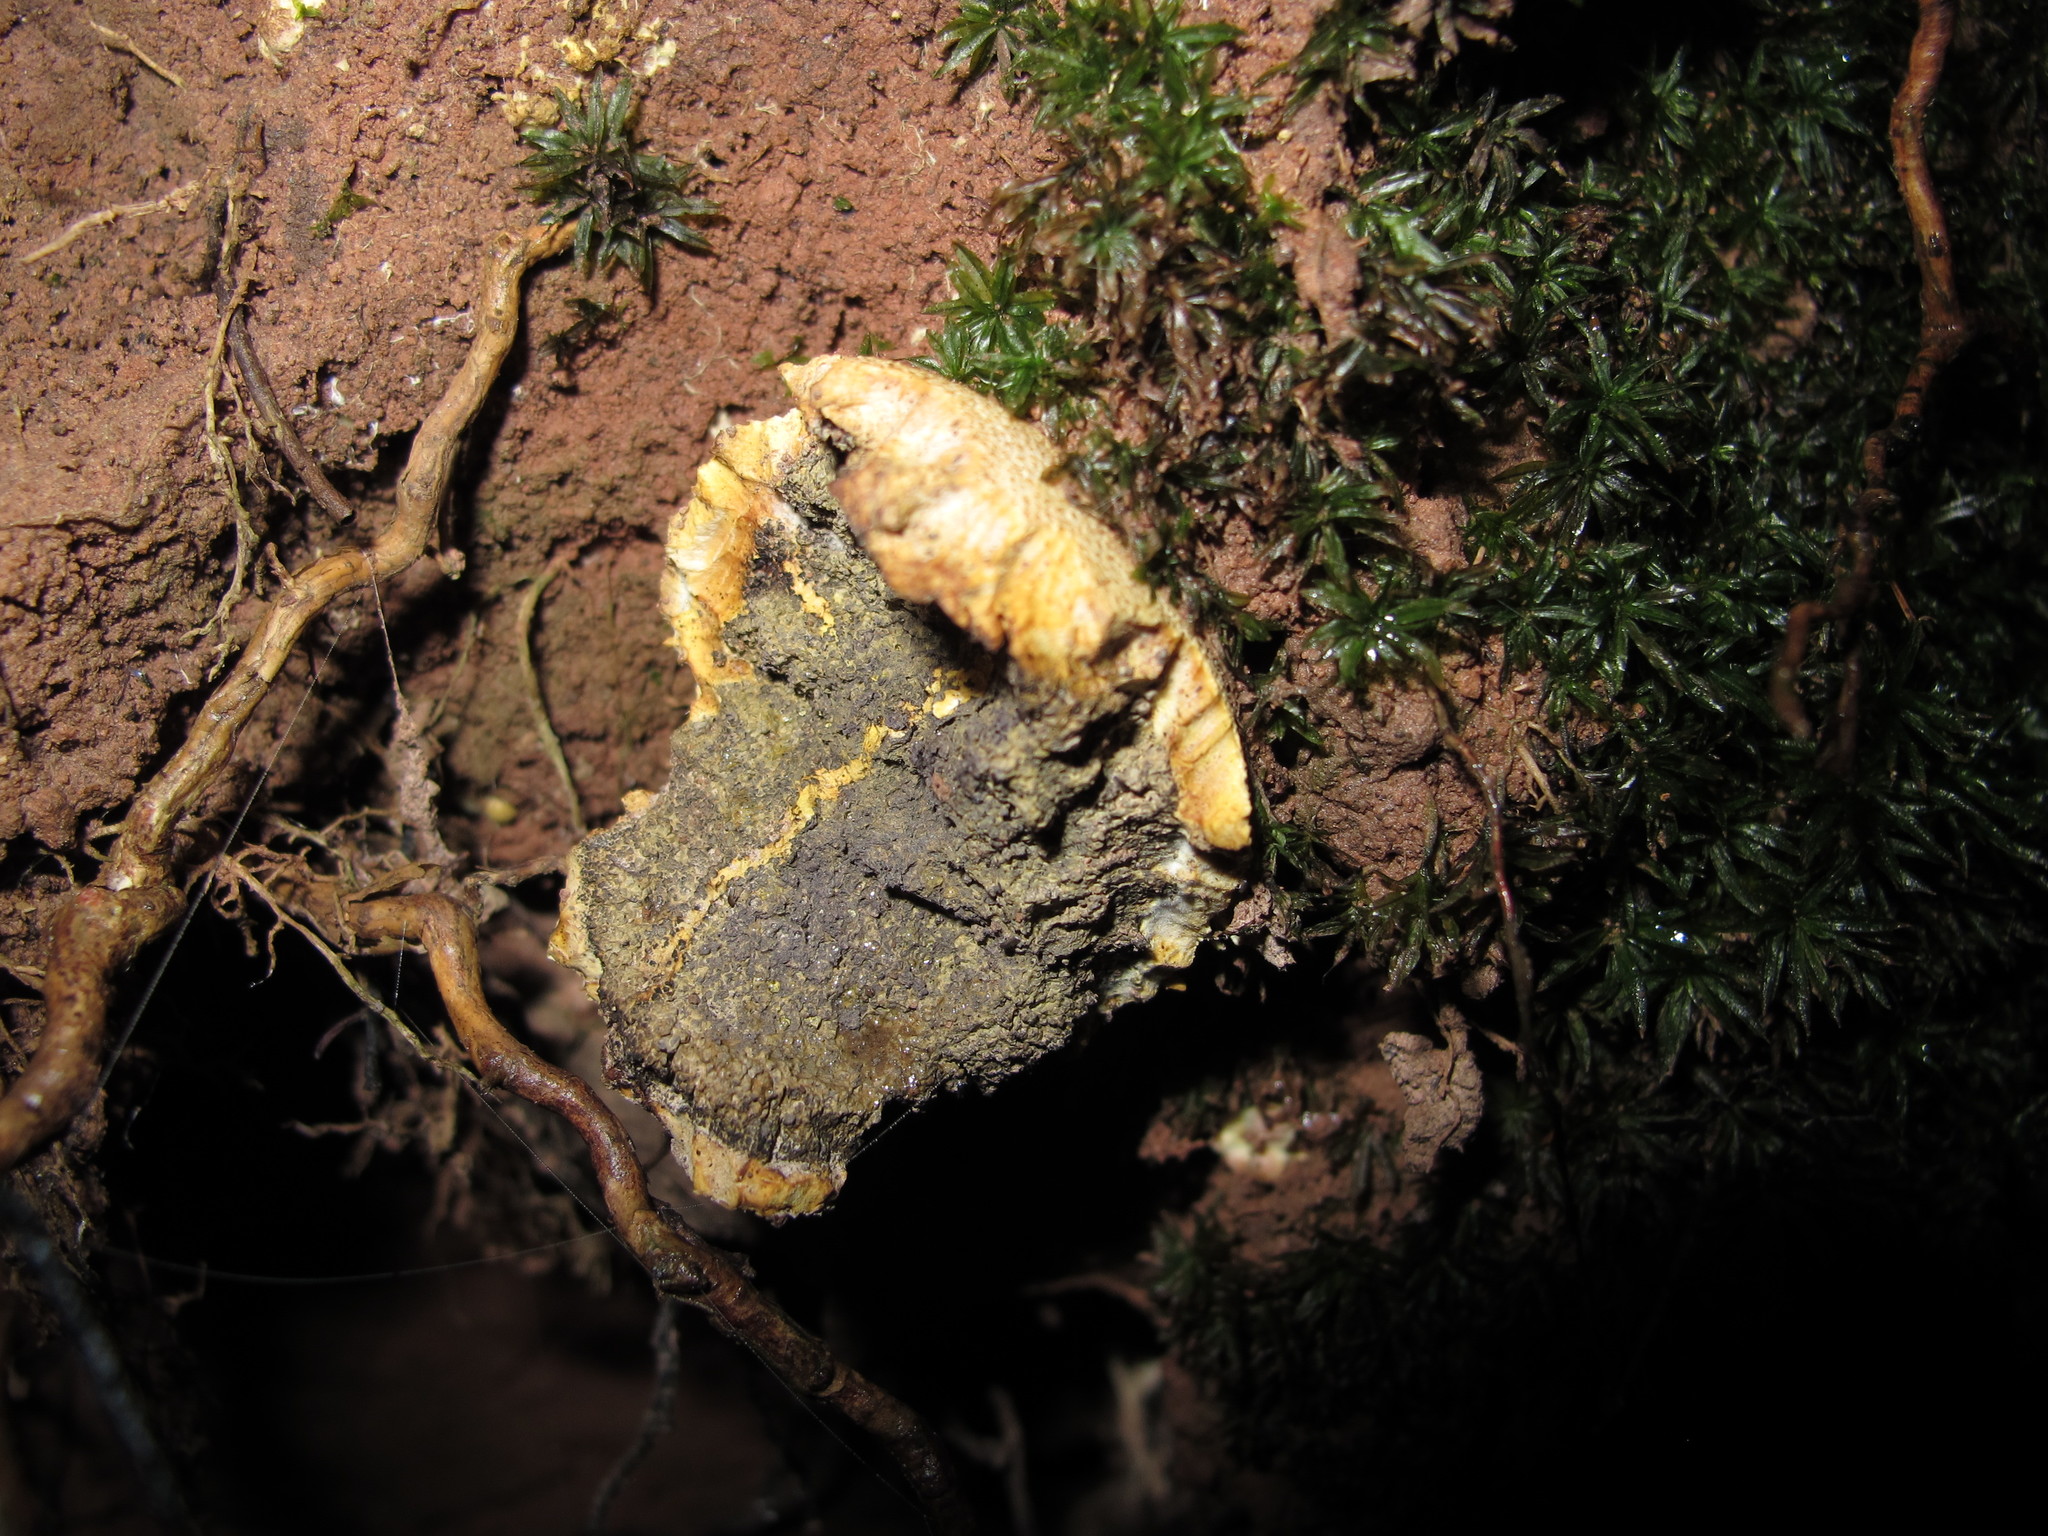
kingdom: Fungi
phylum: Basidiomycota
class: Agaricomycetes
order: Boletales
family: Sclerodermataceae
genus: Scleroderma
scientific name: Scleroderma citrinum
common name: Common earthball
